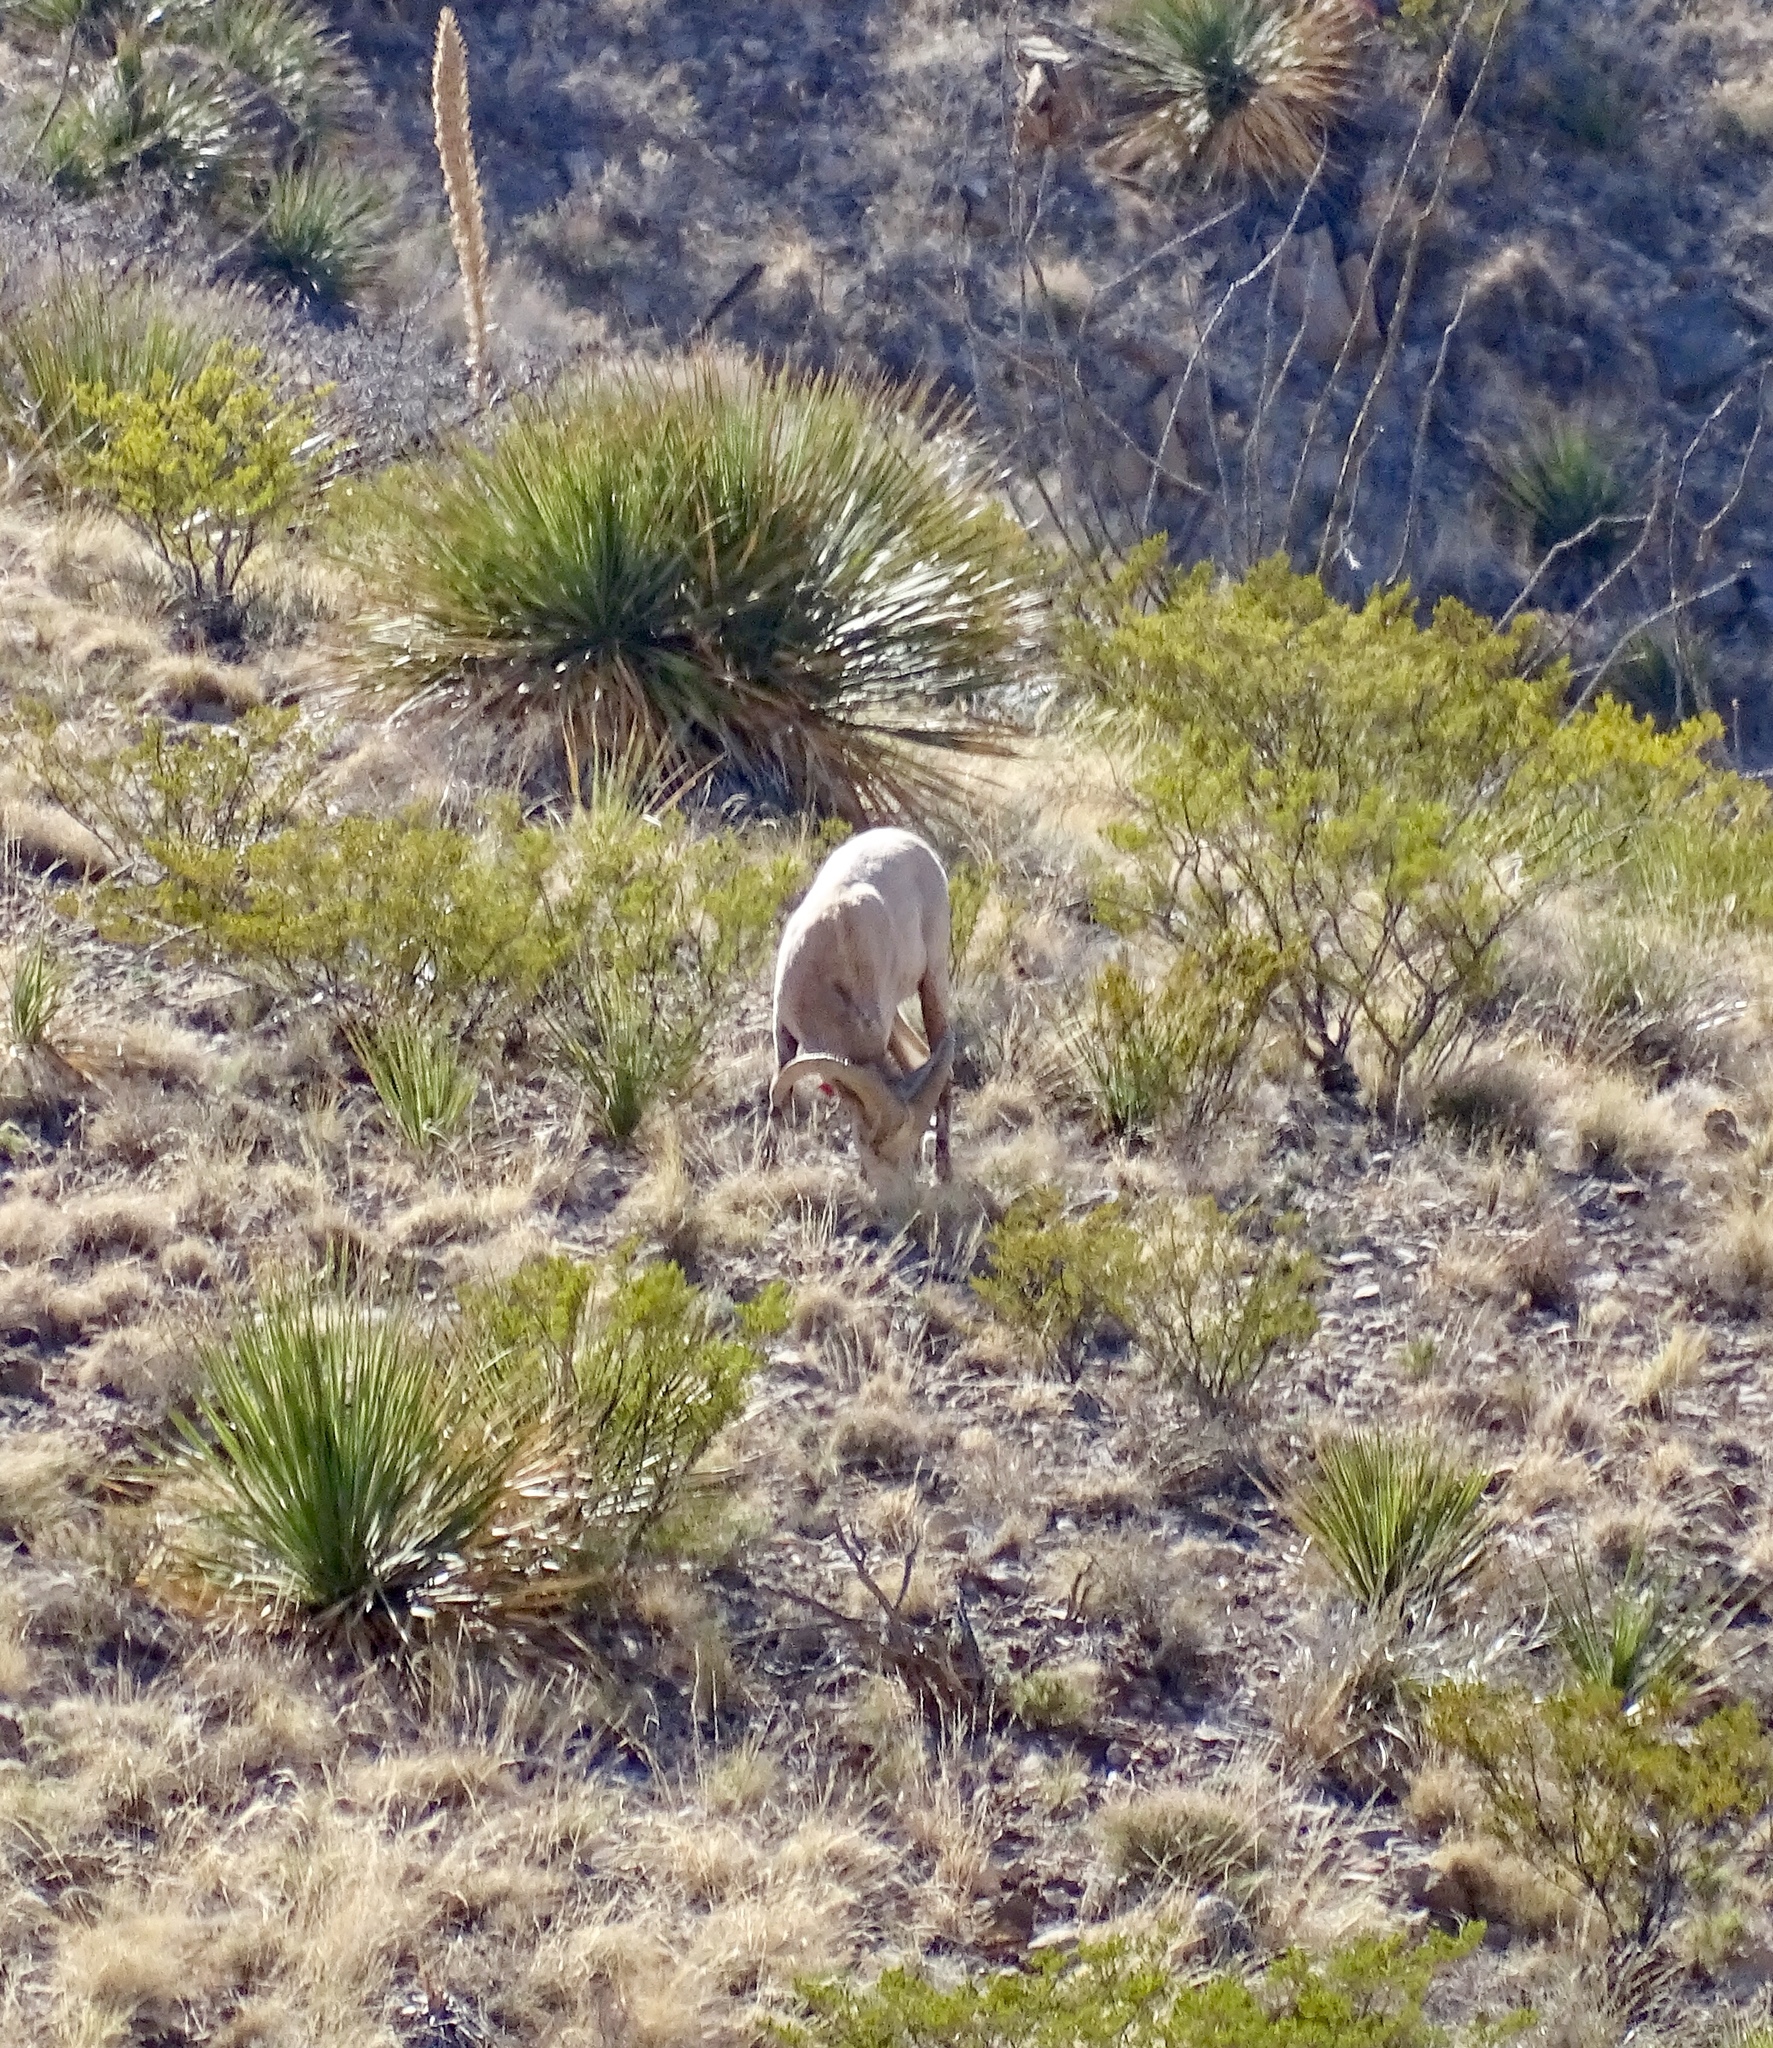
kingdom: Animalia
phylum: Chordata
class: Mammalia
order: Artiodactyla
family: Bovidae
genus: Ovis
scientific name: Ovis canadensis
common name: Bighorn sheep
